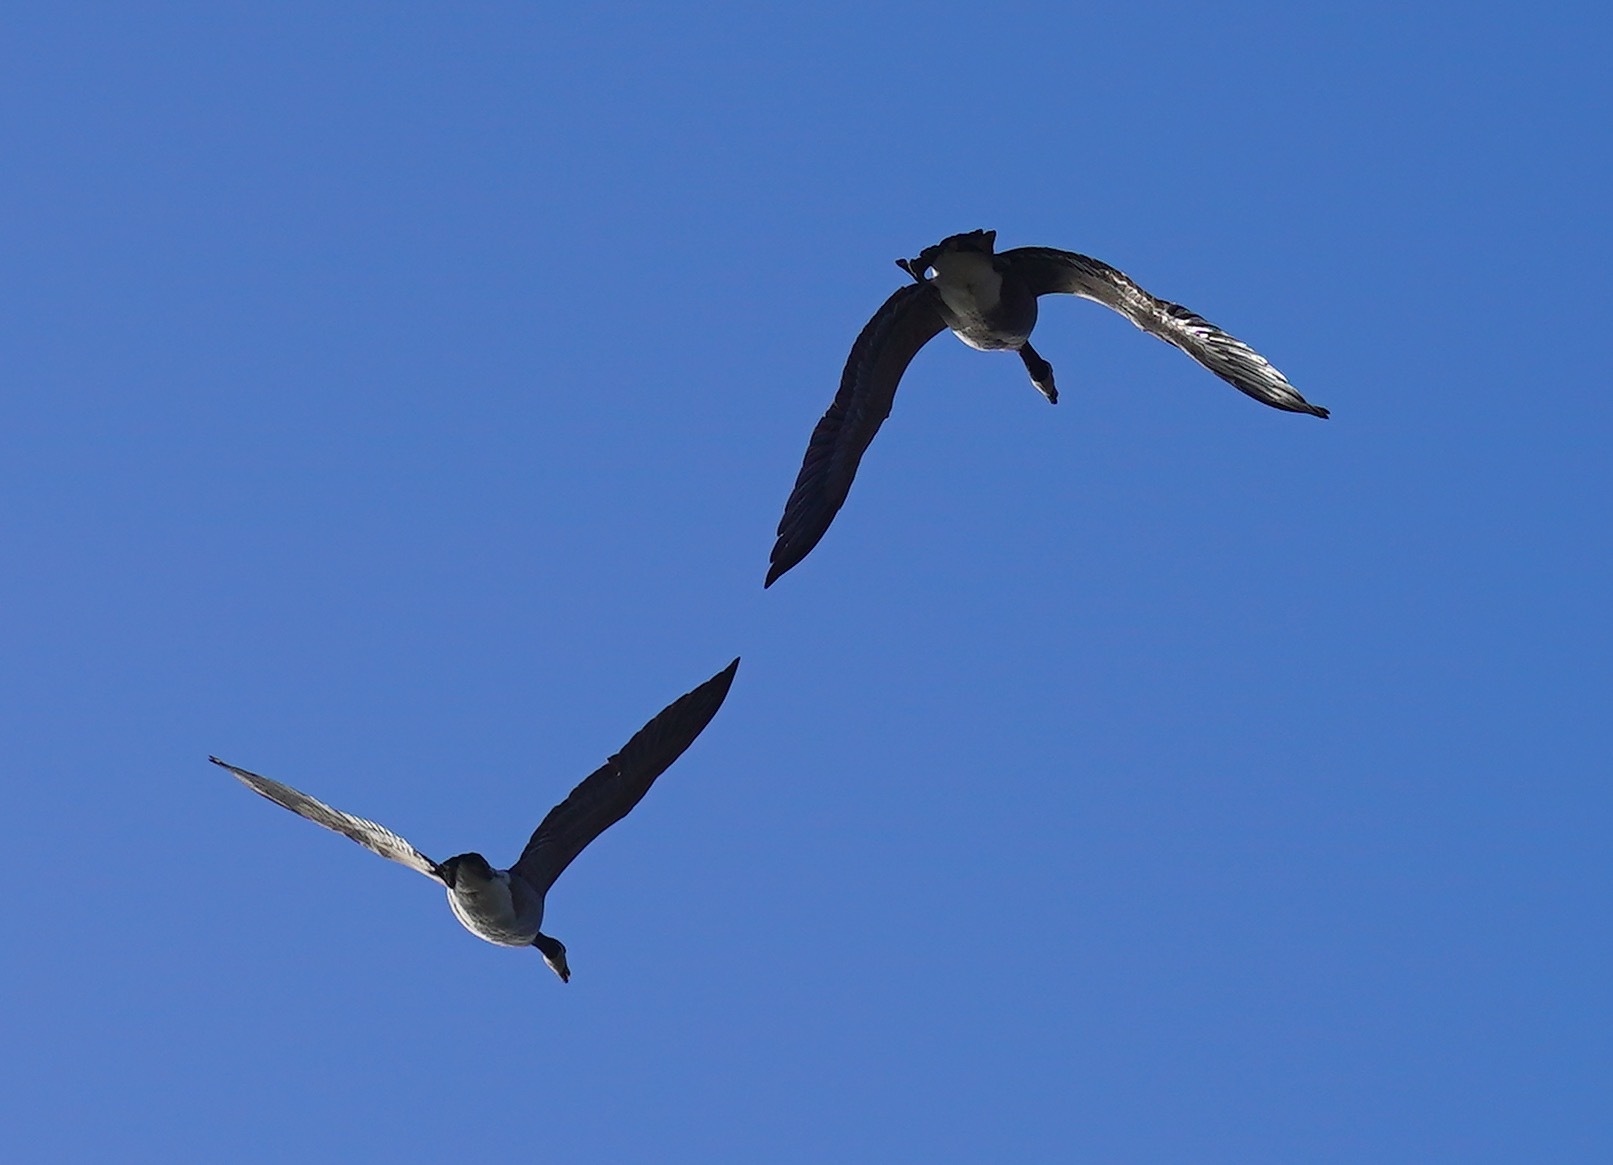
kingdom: Animalia
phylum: Chordata
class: Aves
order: Anseriformes
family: Anatidae
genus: Branta
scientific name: Branta canadensis
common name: Canada goose
